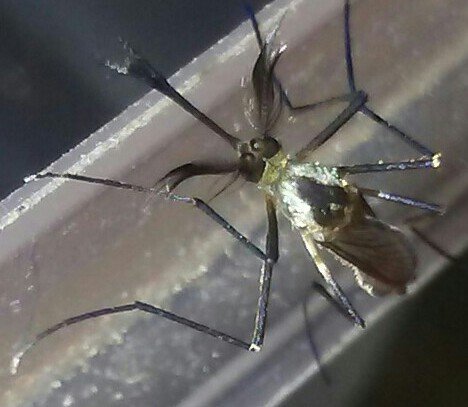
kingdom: Animalia
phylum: Arthropoda
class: Insecta
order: Diptera
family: Culicidae
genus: Aedes
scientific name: Aedes triseriatus
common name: Eastern treehole mosquito
